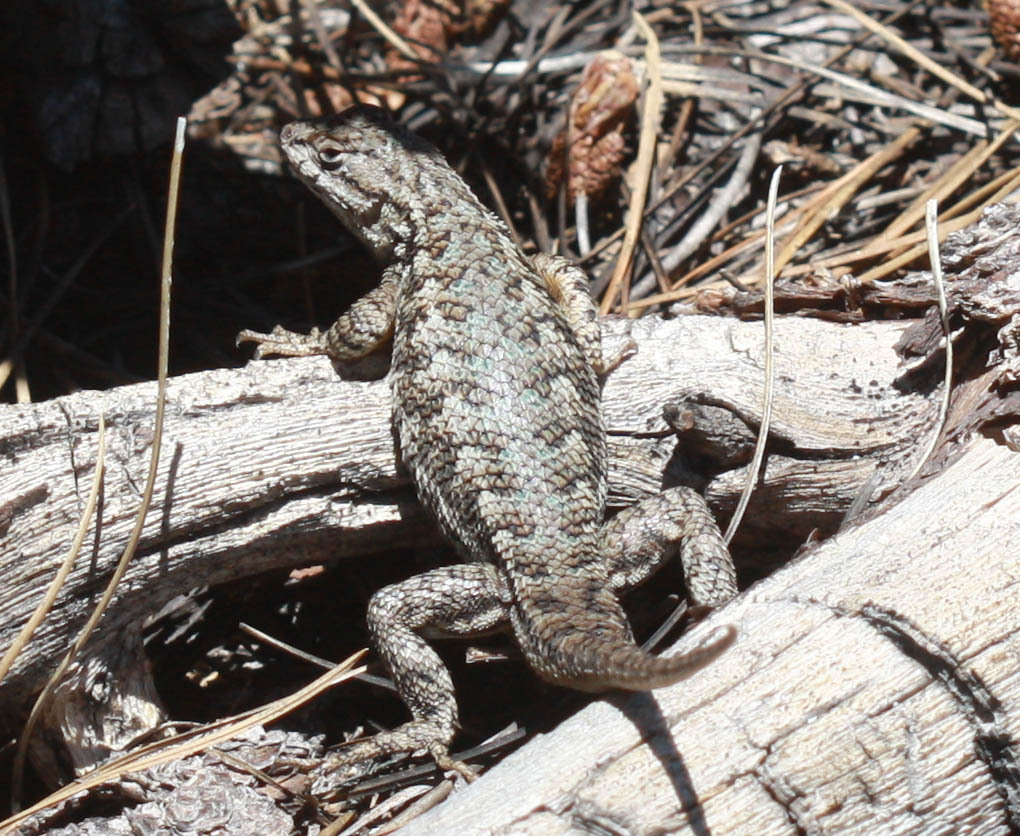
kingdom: Animalia
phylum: Chordata
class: Squamata
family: Phrynosomatidae
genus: Sceloporus
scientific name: Sceloporus occidentalis
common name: Western fence lizard
